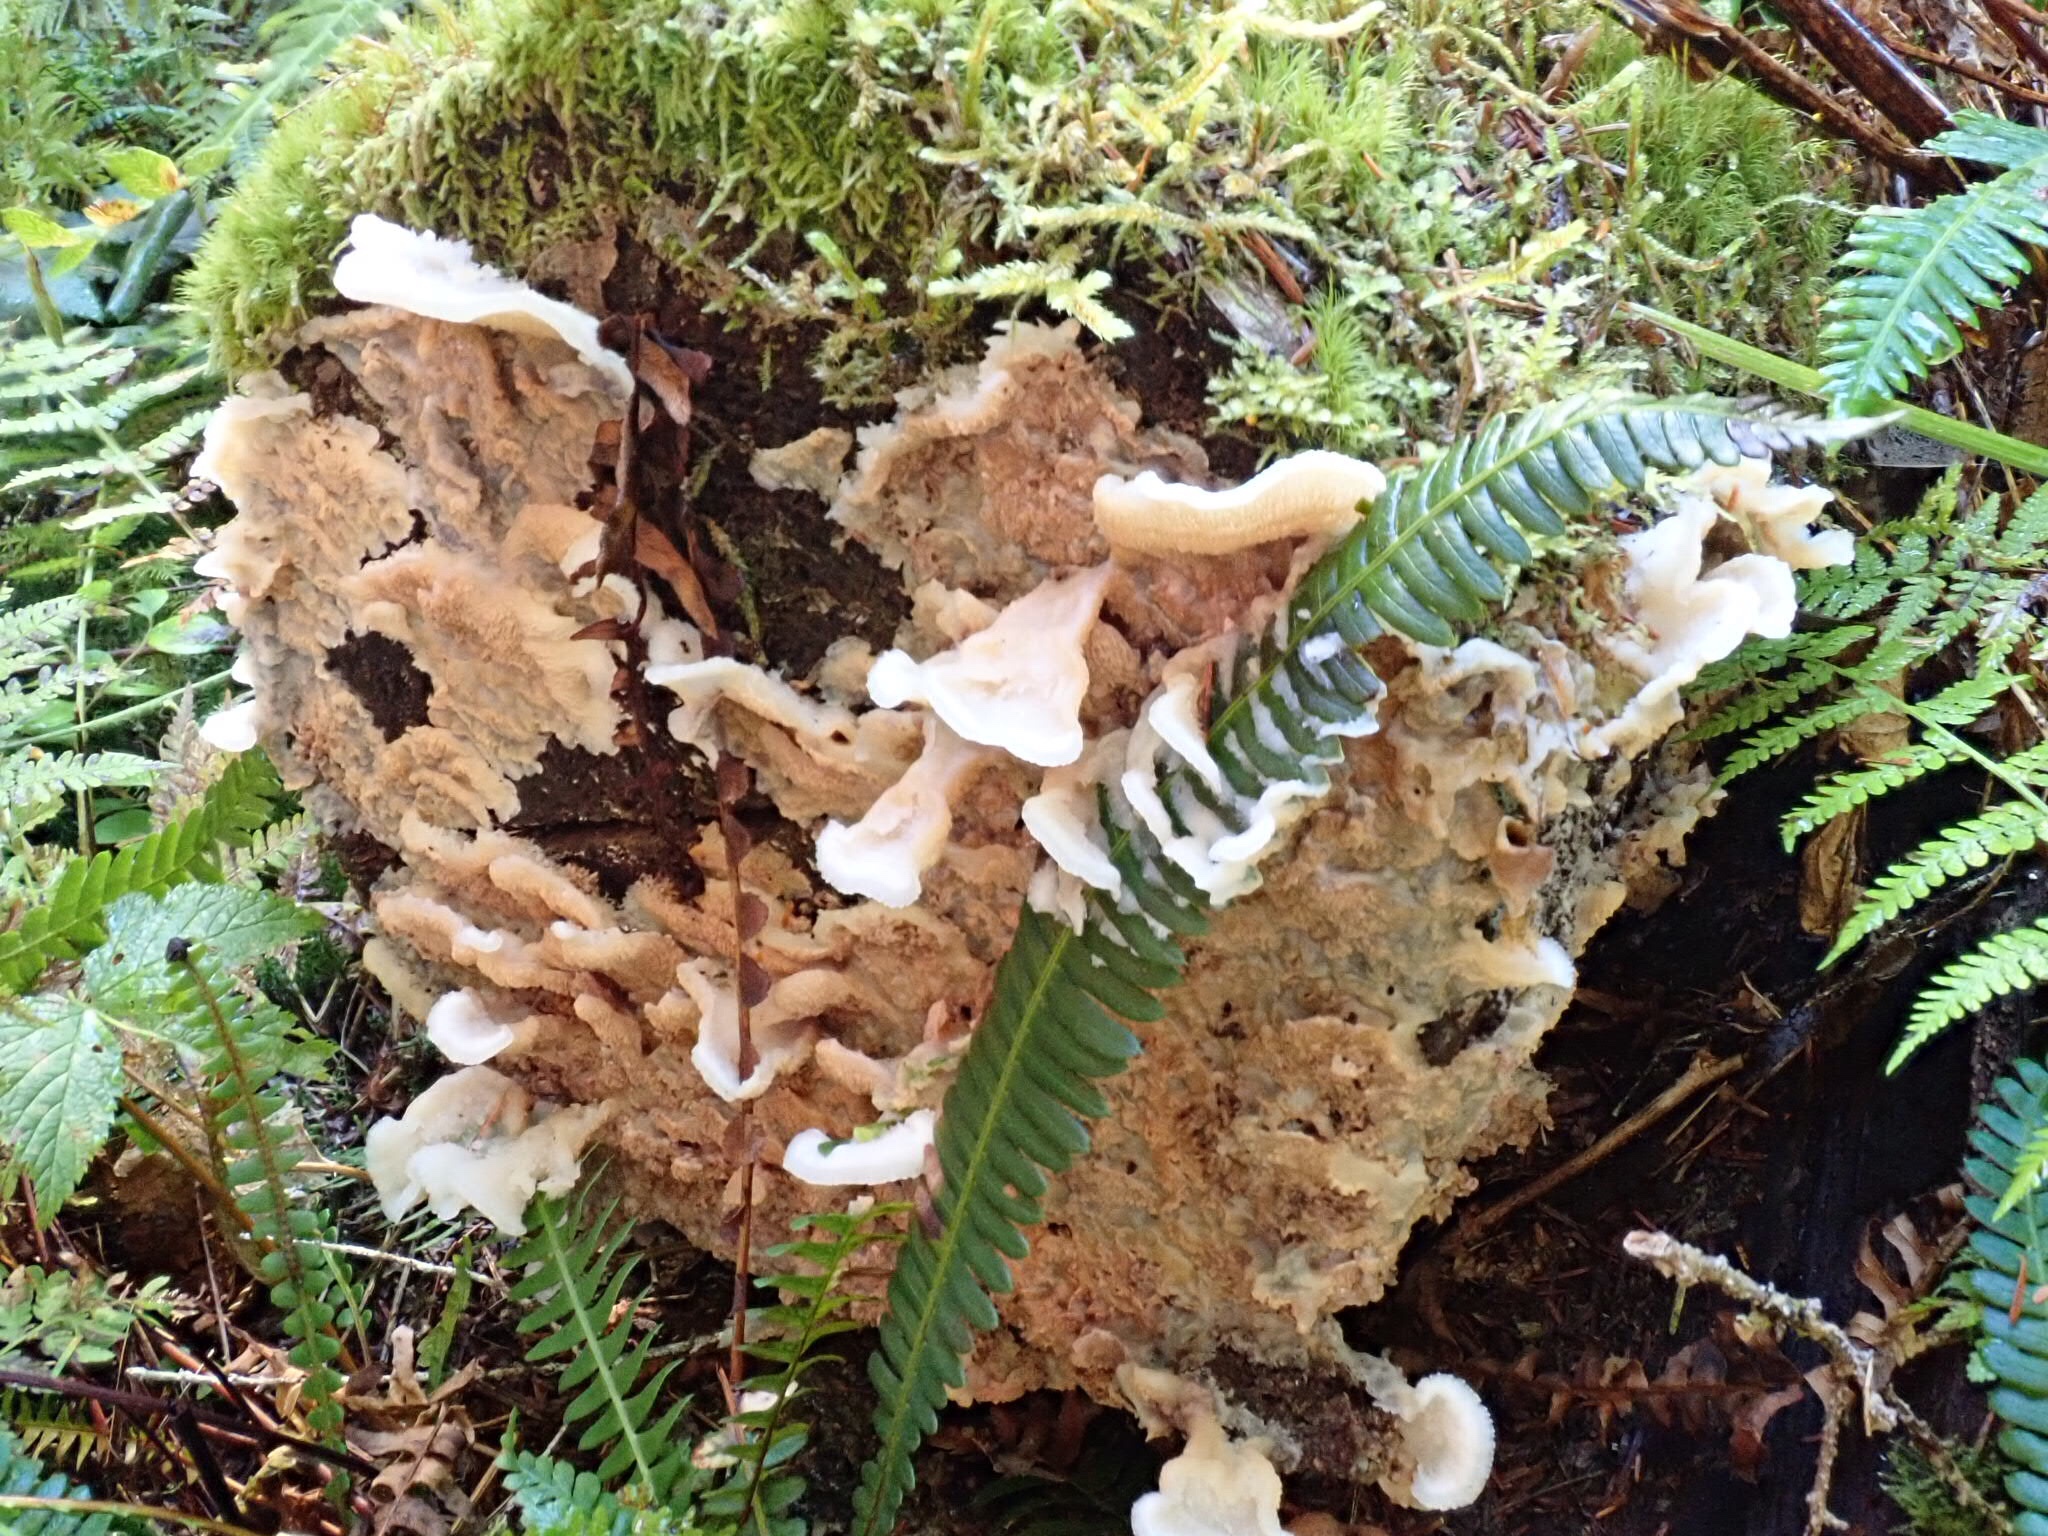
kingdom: Fungi
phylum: Basidiomycota
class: Agaricomycetes
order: Polyporales
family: Meruliaceae
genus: Phlebia
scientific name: Phlebia tremellosa
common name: Jelly rot
